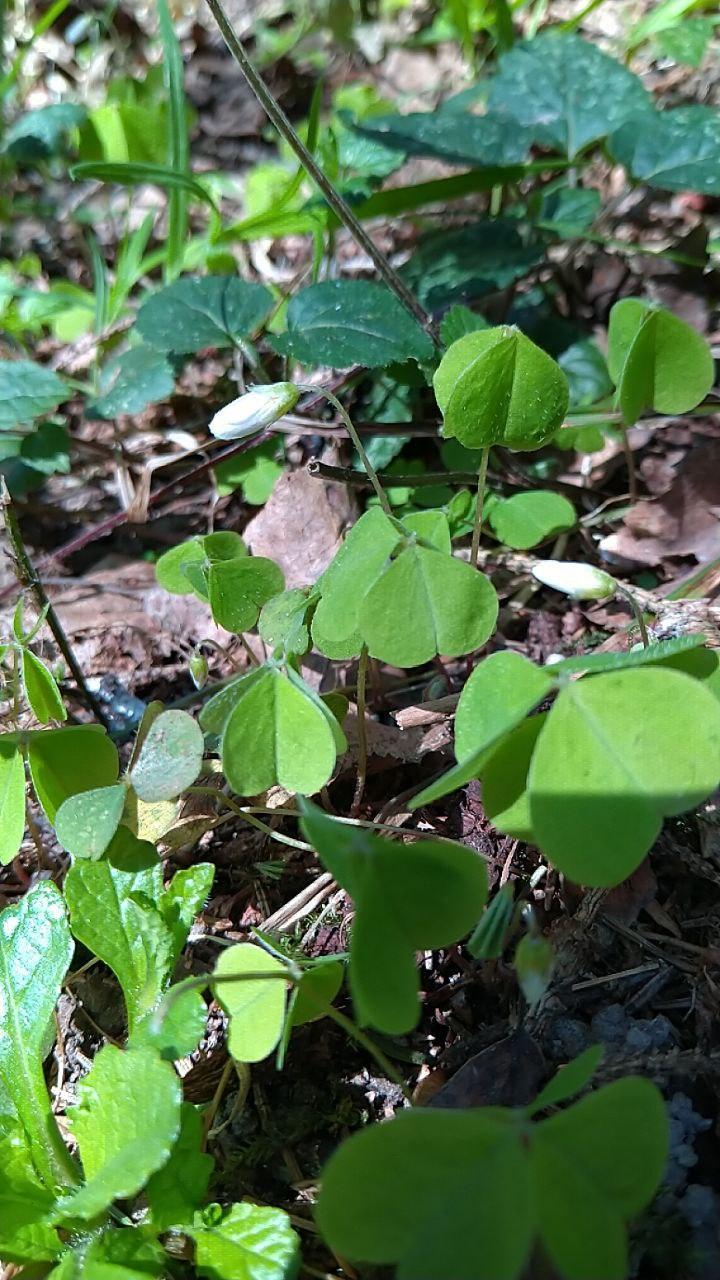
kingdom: Plantae
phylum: Tracheophyta
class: Magnoliopsida
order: Oxalidales
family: Oxalidaceae
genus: Oxalis
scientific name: Oxalis acetosella
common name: Wood-sorrel
